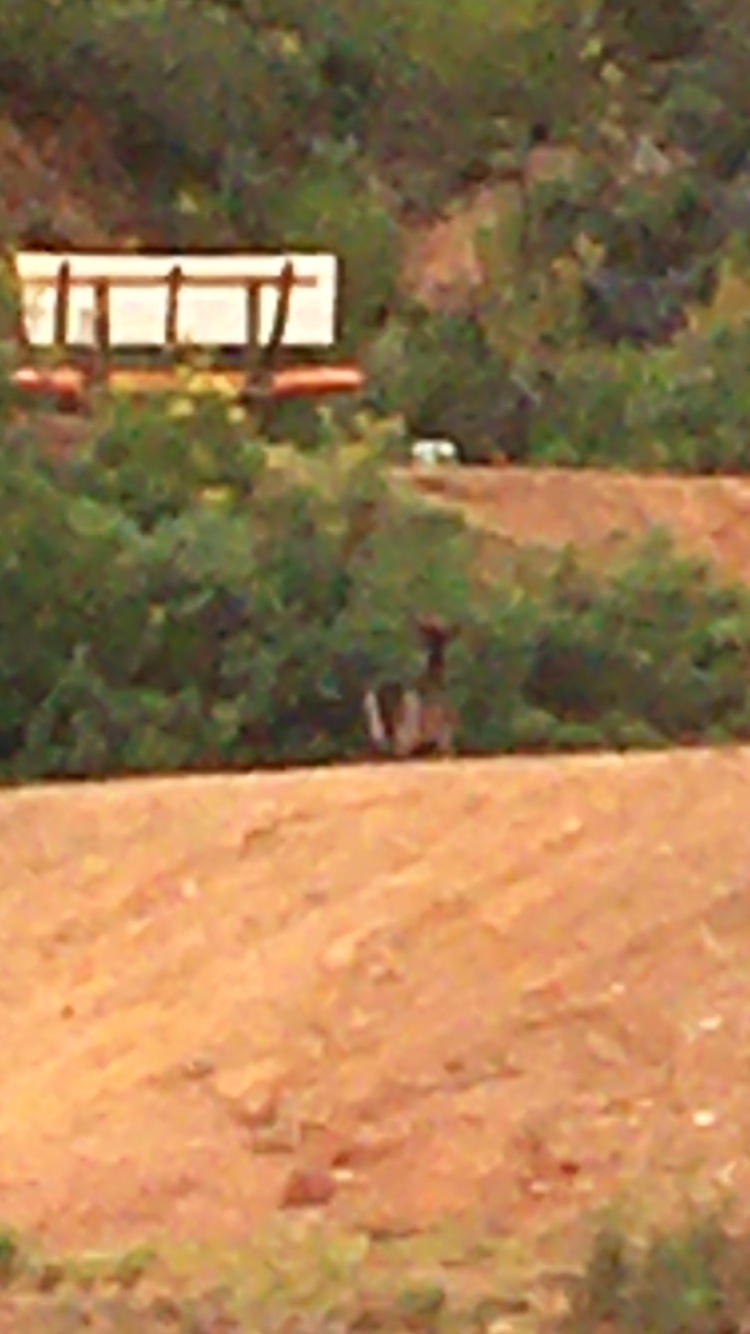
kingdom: Animalia
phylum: Chordata
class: Mammalia
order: Artiodactyla
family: Cervidae
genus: Dama
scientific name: Dama dama
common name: Fallow deer
